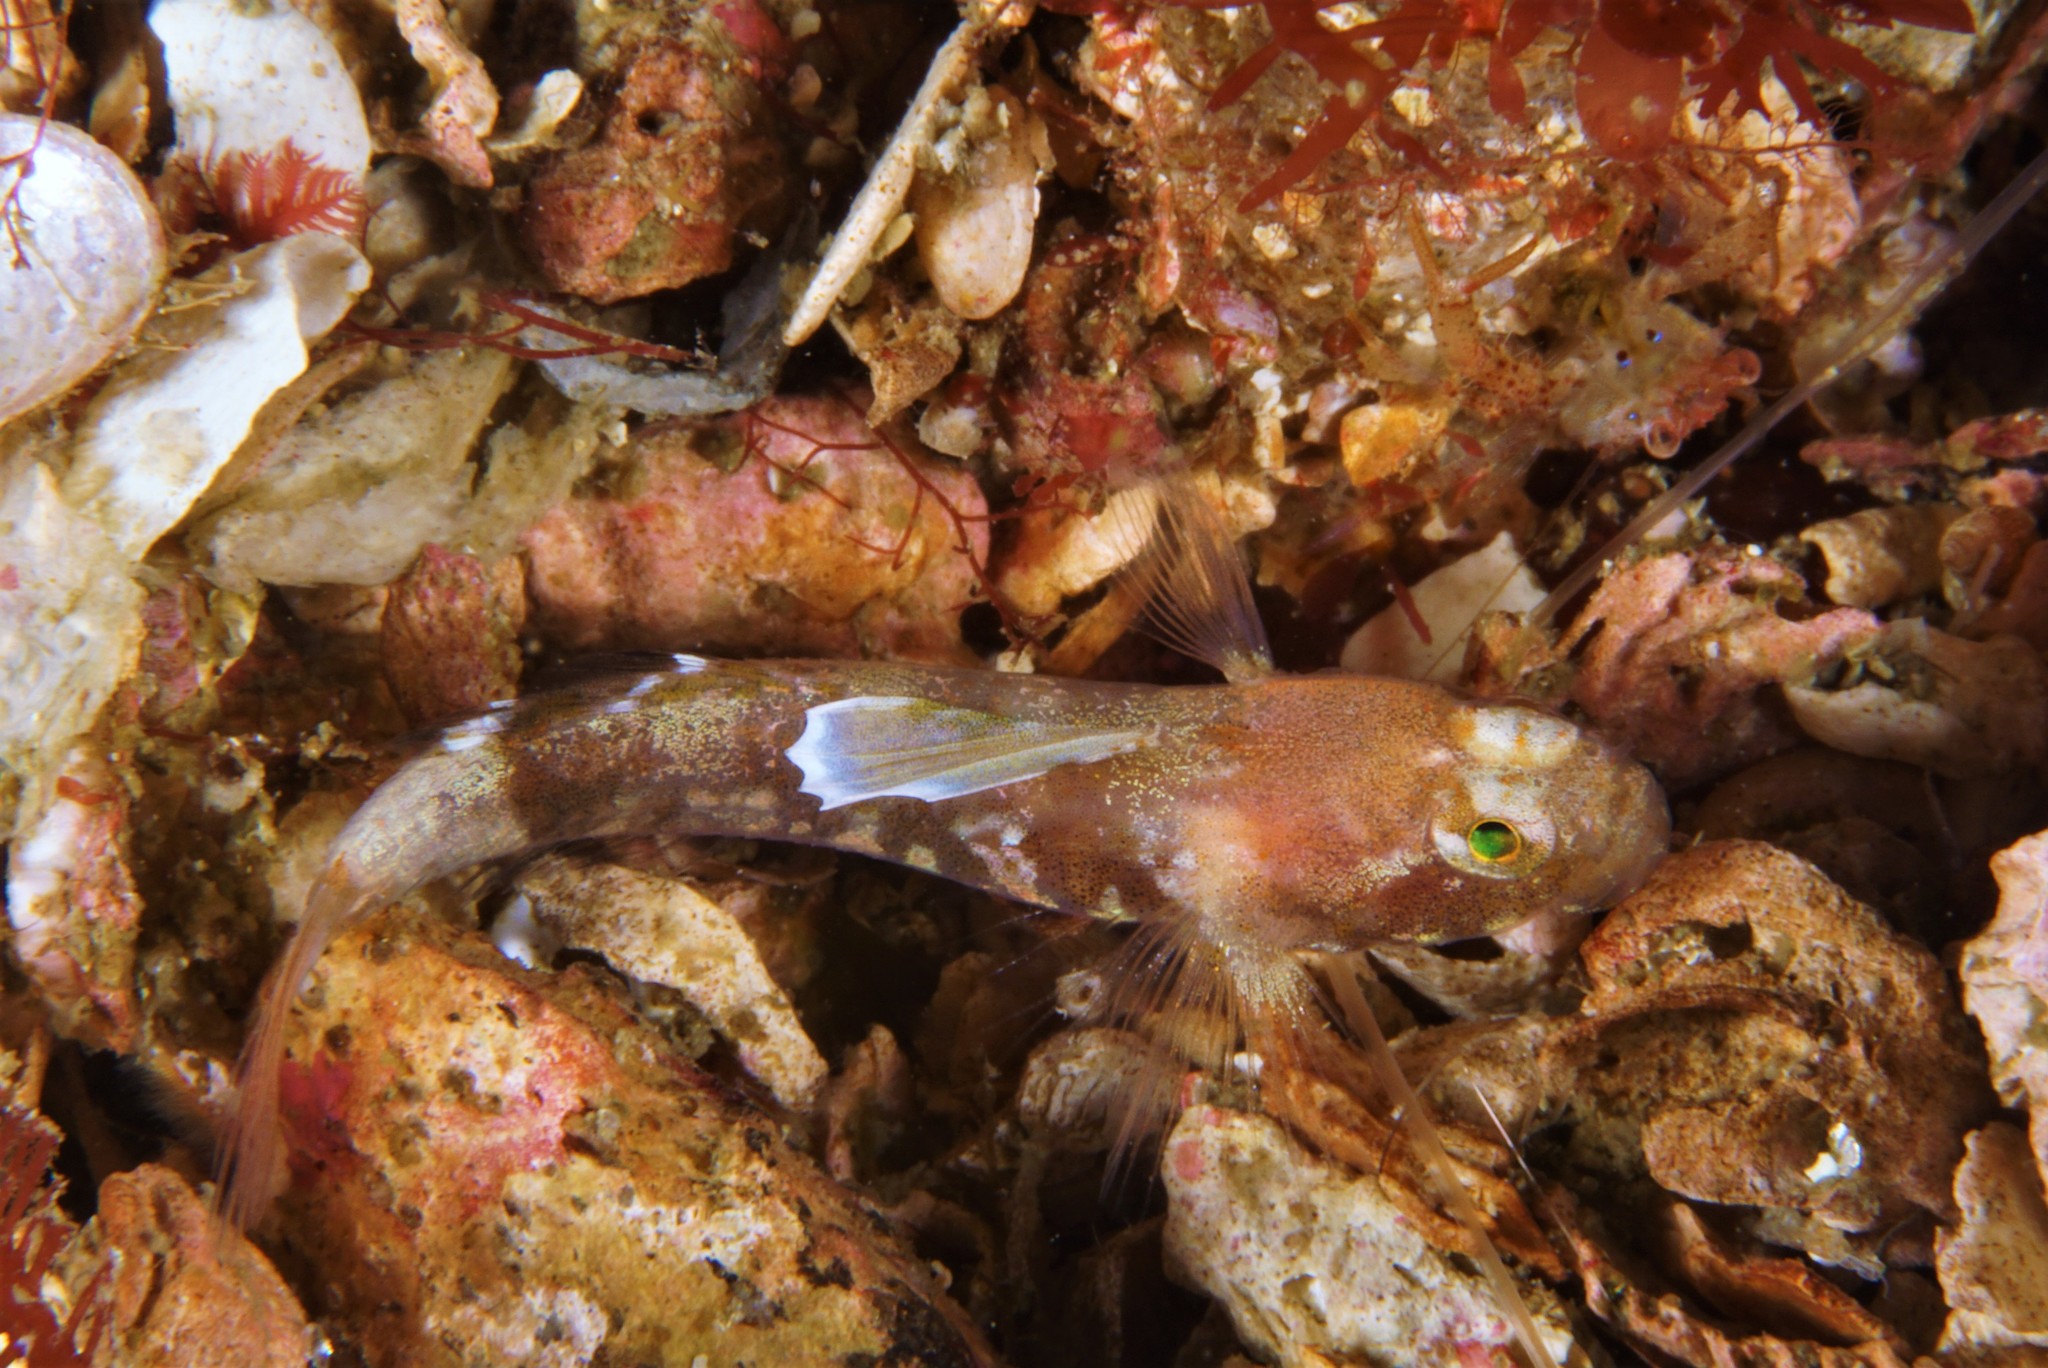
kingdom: Animalia
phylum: Chordata
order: Perciformes
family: Gobiidae
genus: Lebetus
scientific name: Lebetus scorpioides
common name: Diminutive goby
